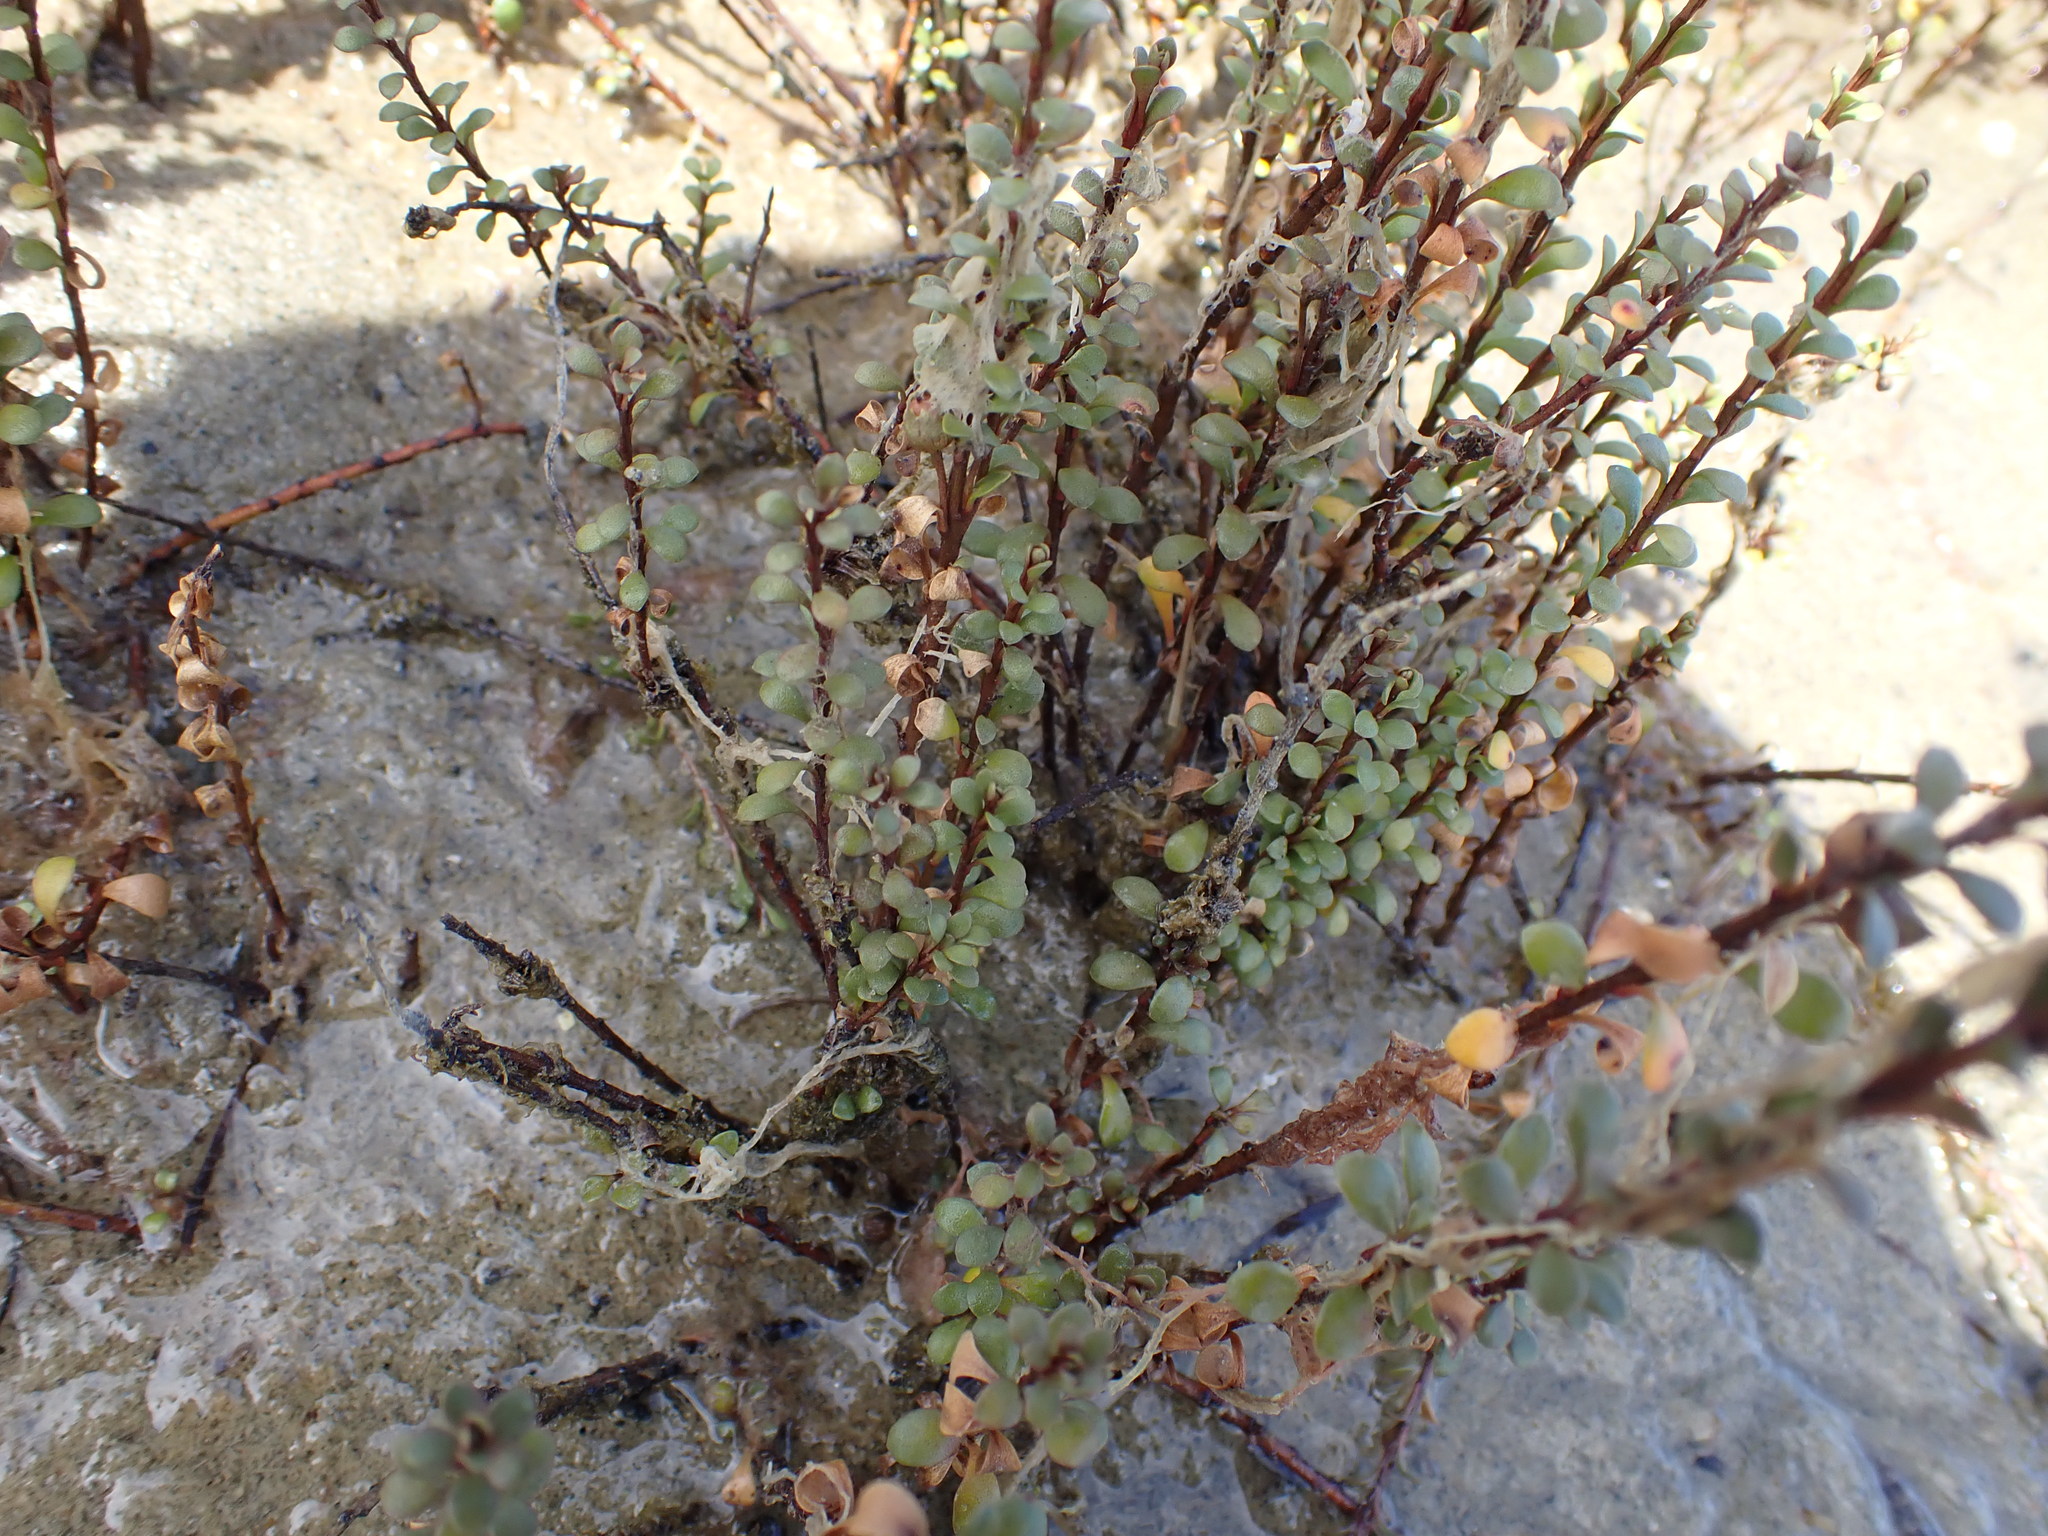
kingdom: Plantae
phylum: Tracheophyta
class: Magnoliopsida
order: Ericales
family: Primulaceae
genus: Samolus
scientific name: Samolus repens
